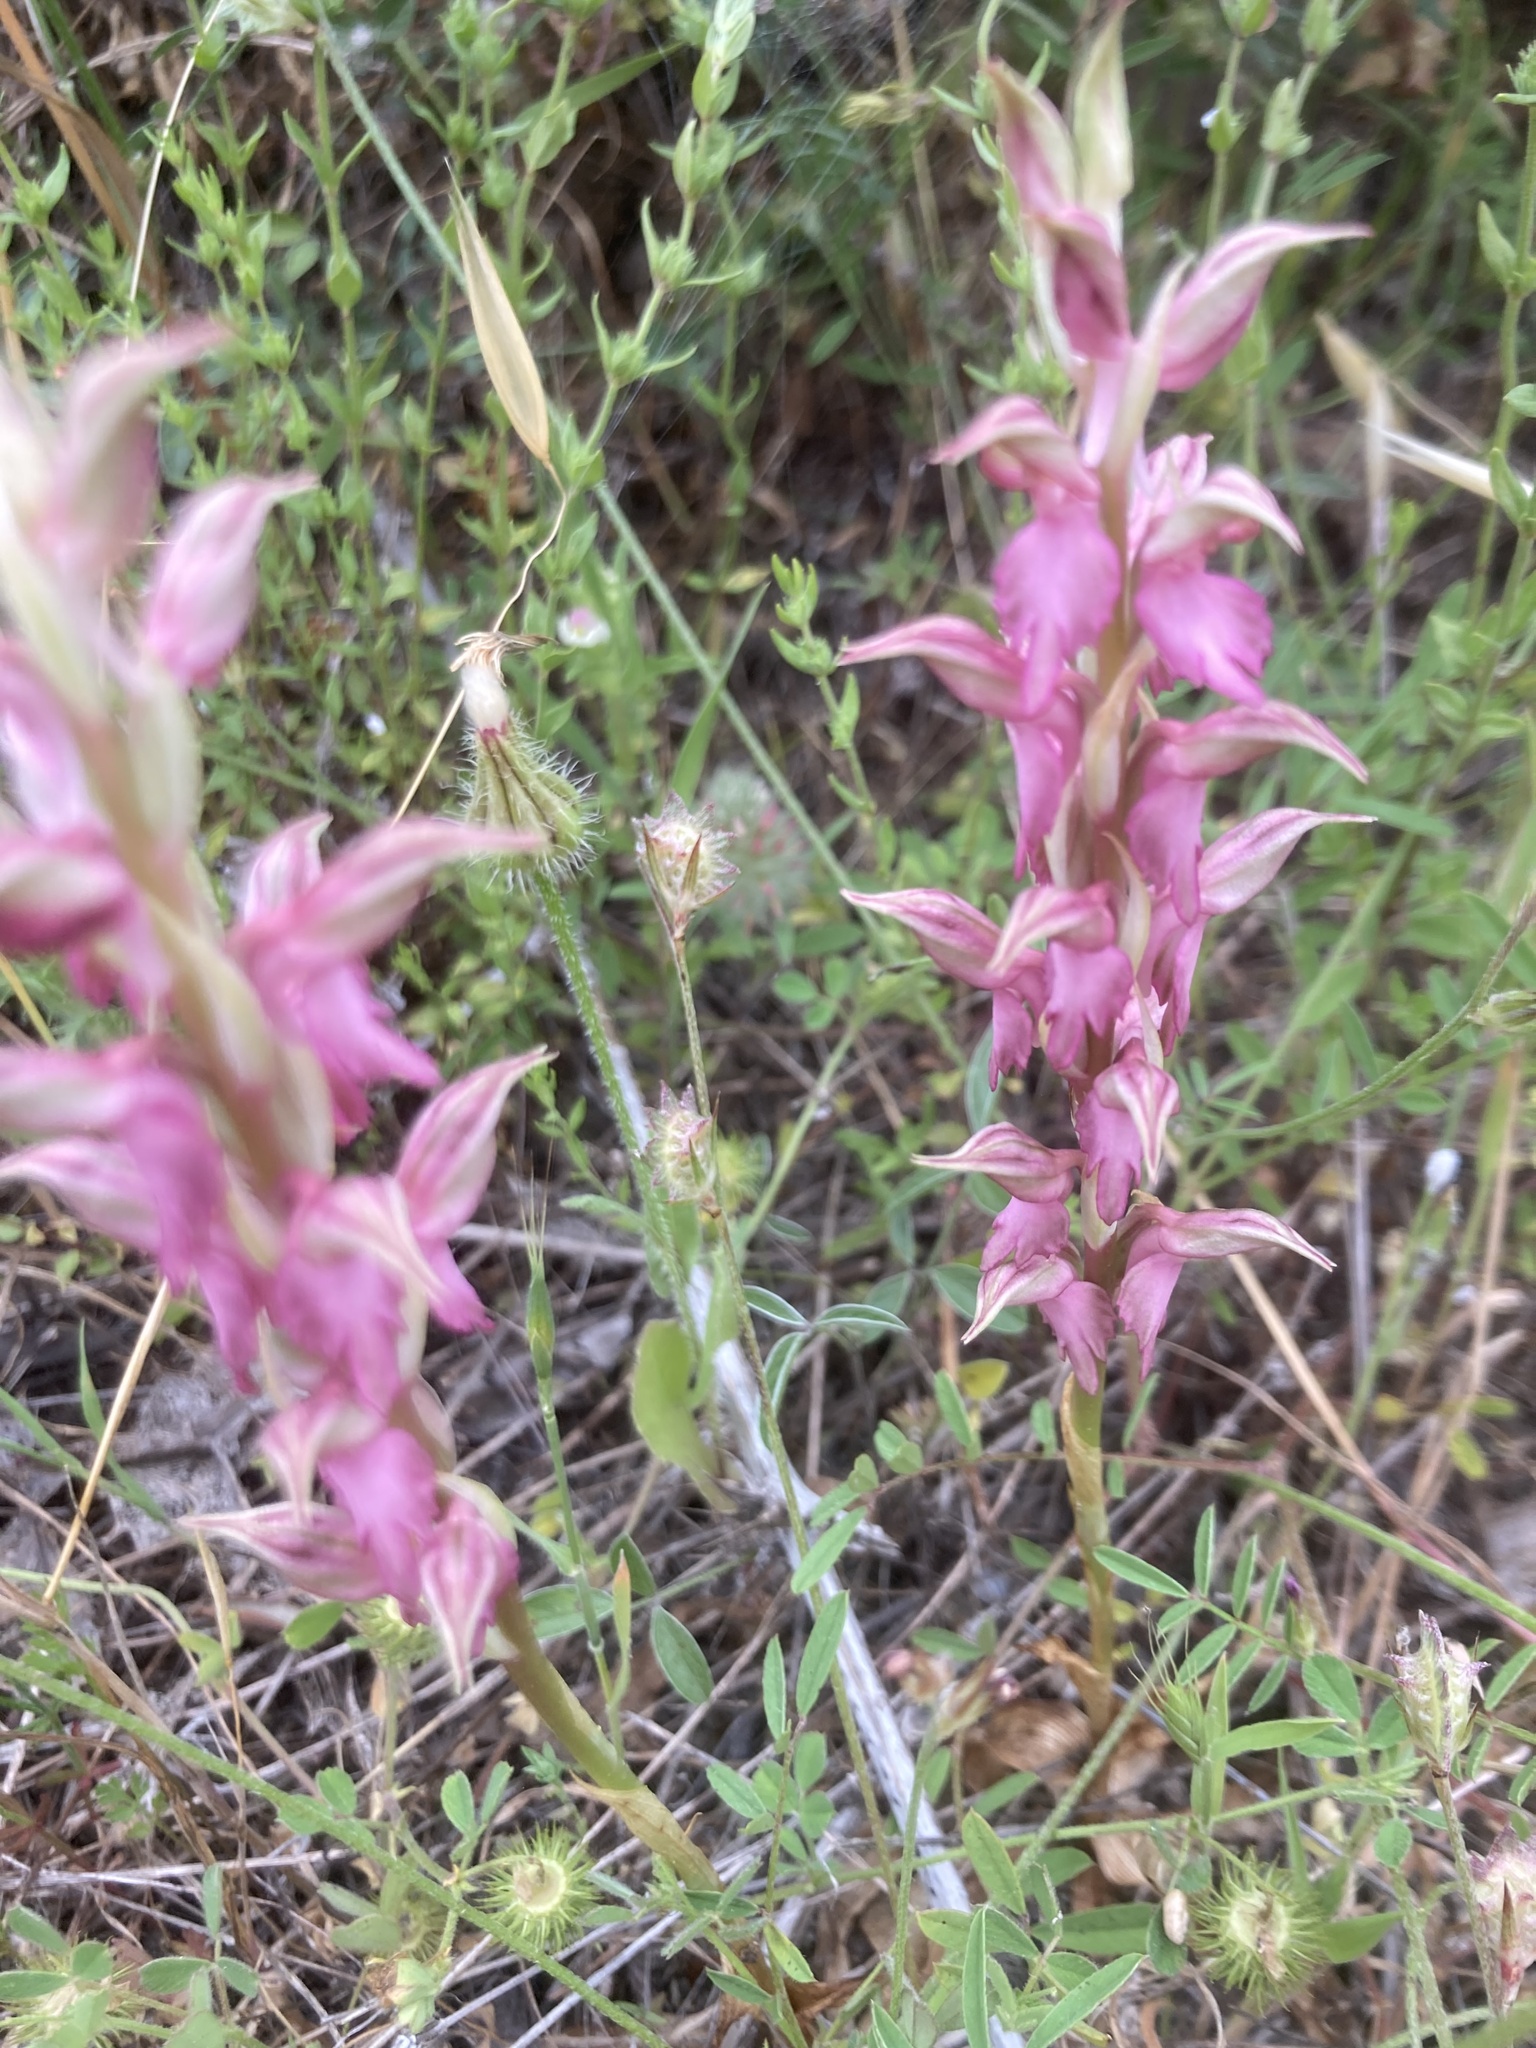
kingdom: Plantae
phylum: Tracheophyta
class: Liliopsida
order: Asparagales
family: Orchidaceae
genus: Anacamptis
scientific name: Anacamptis sancta
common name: Holy orchid
